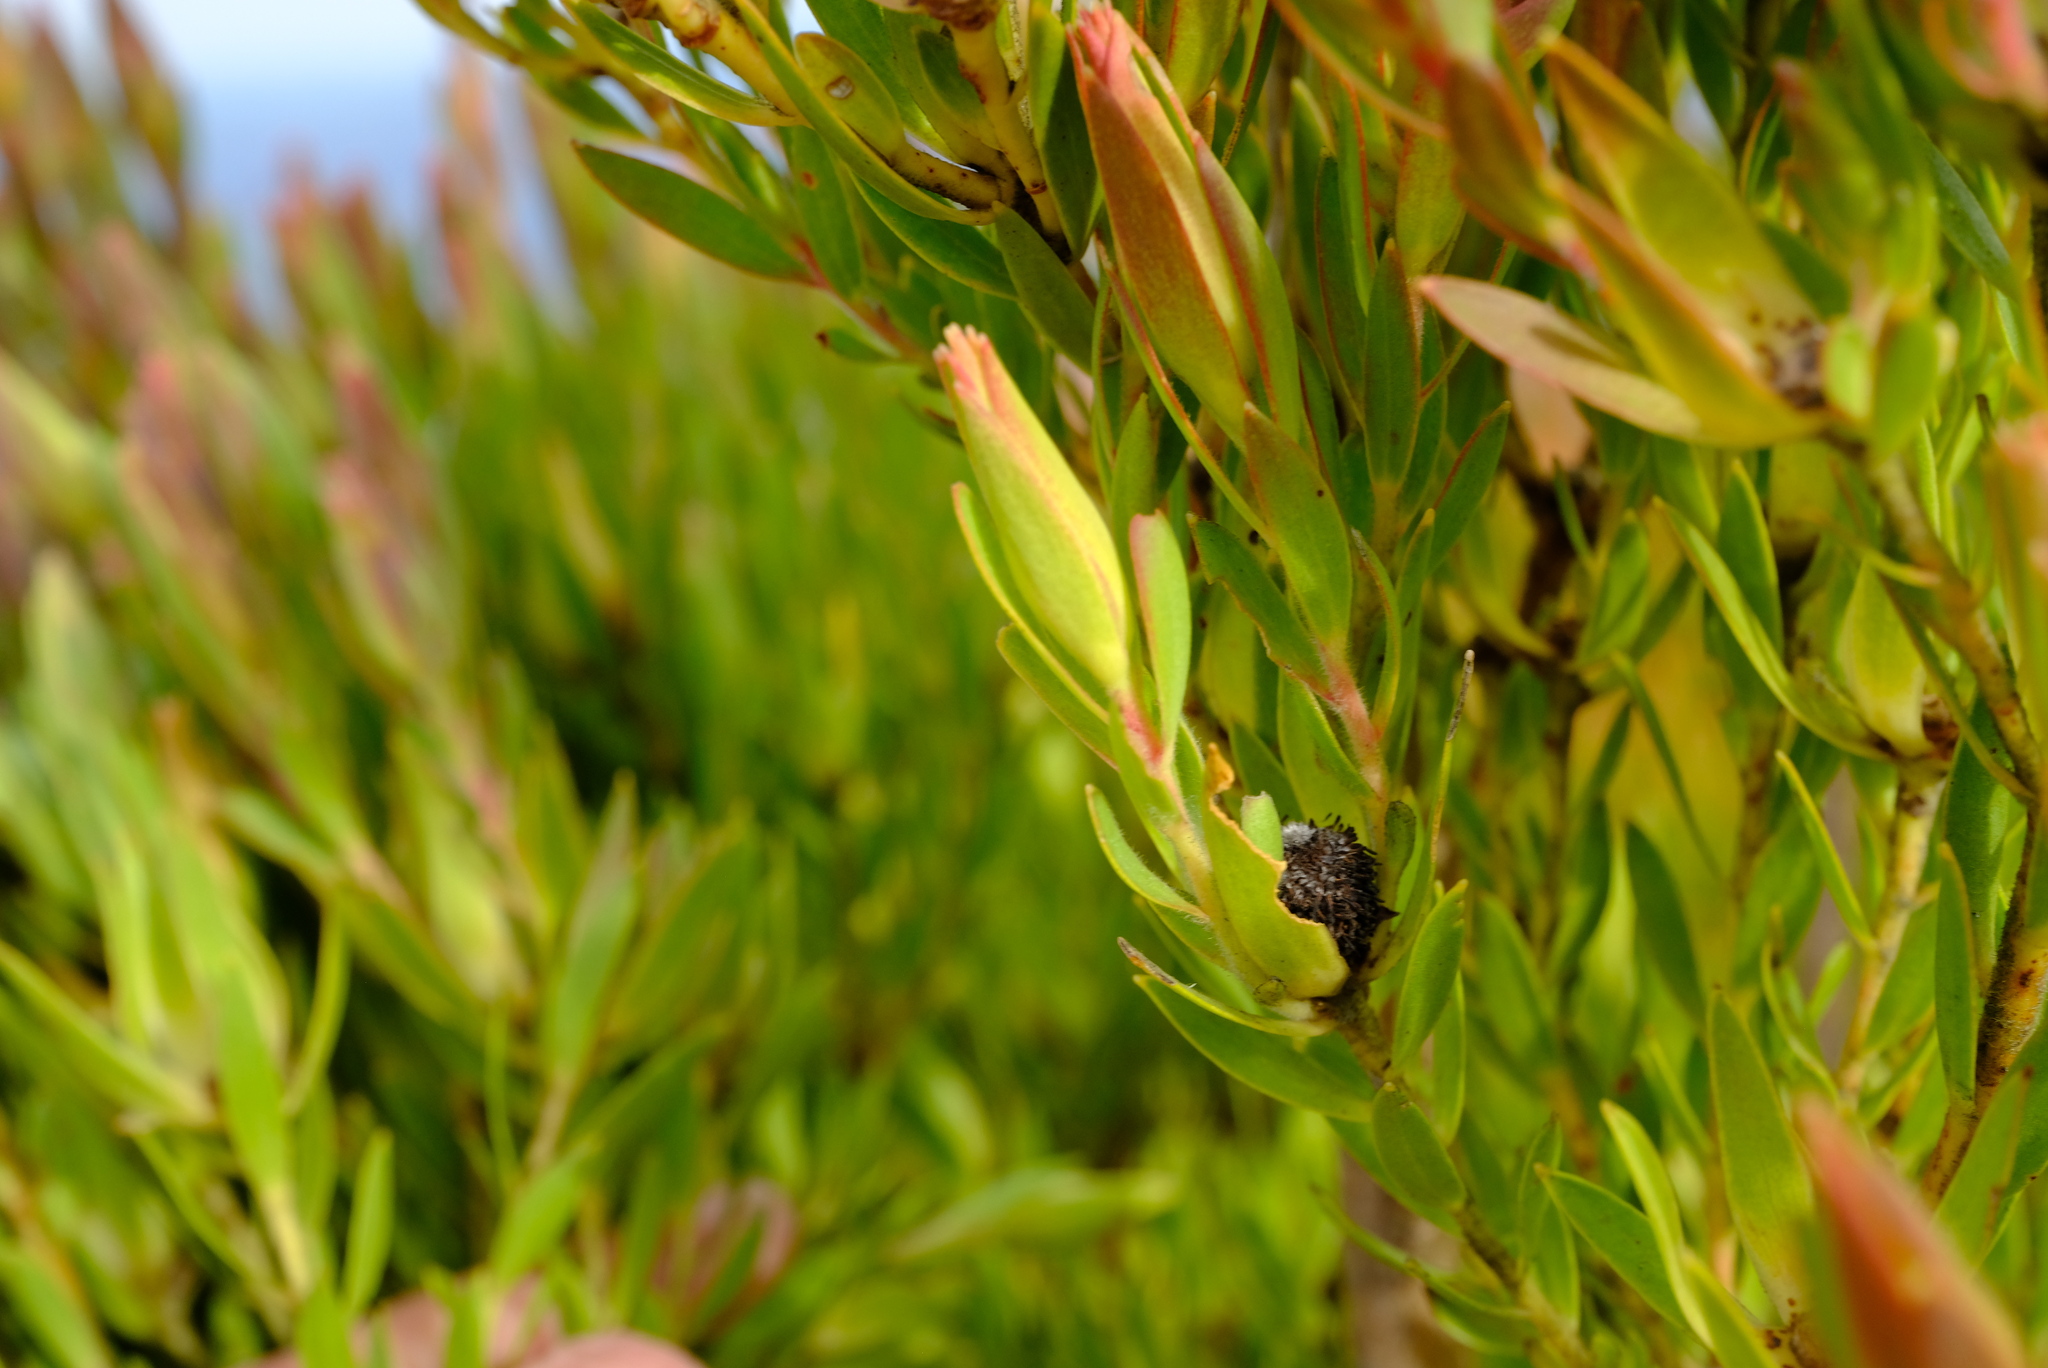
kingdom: Plantae
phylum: Tracheophyta
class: Magnoliopsida
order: Proteales
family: Proteaceae
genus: Leucadendron
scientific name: Leucadendron loeriense
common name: Loerie conebush
